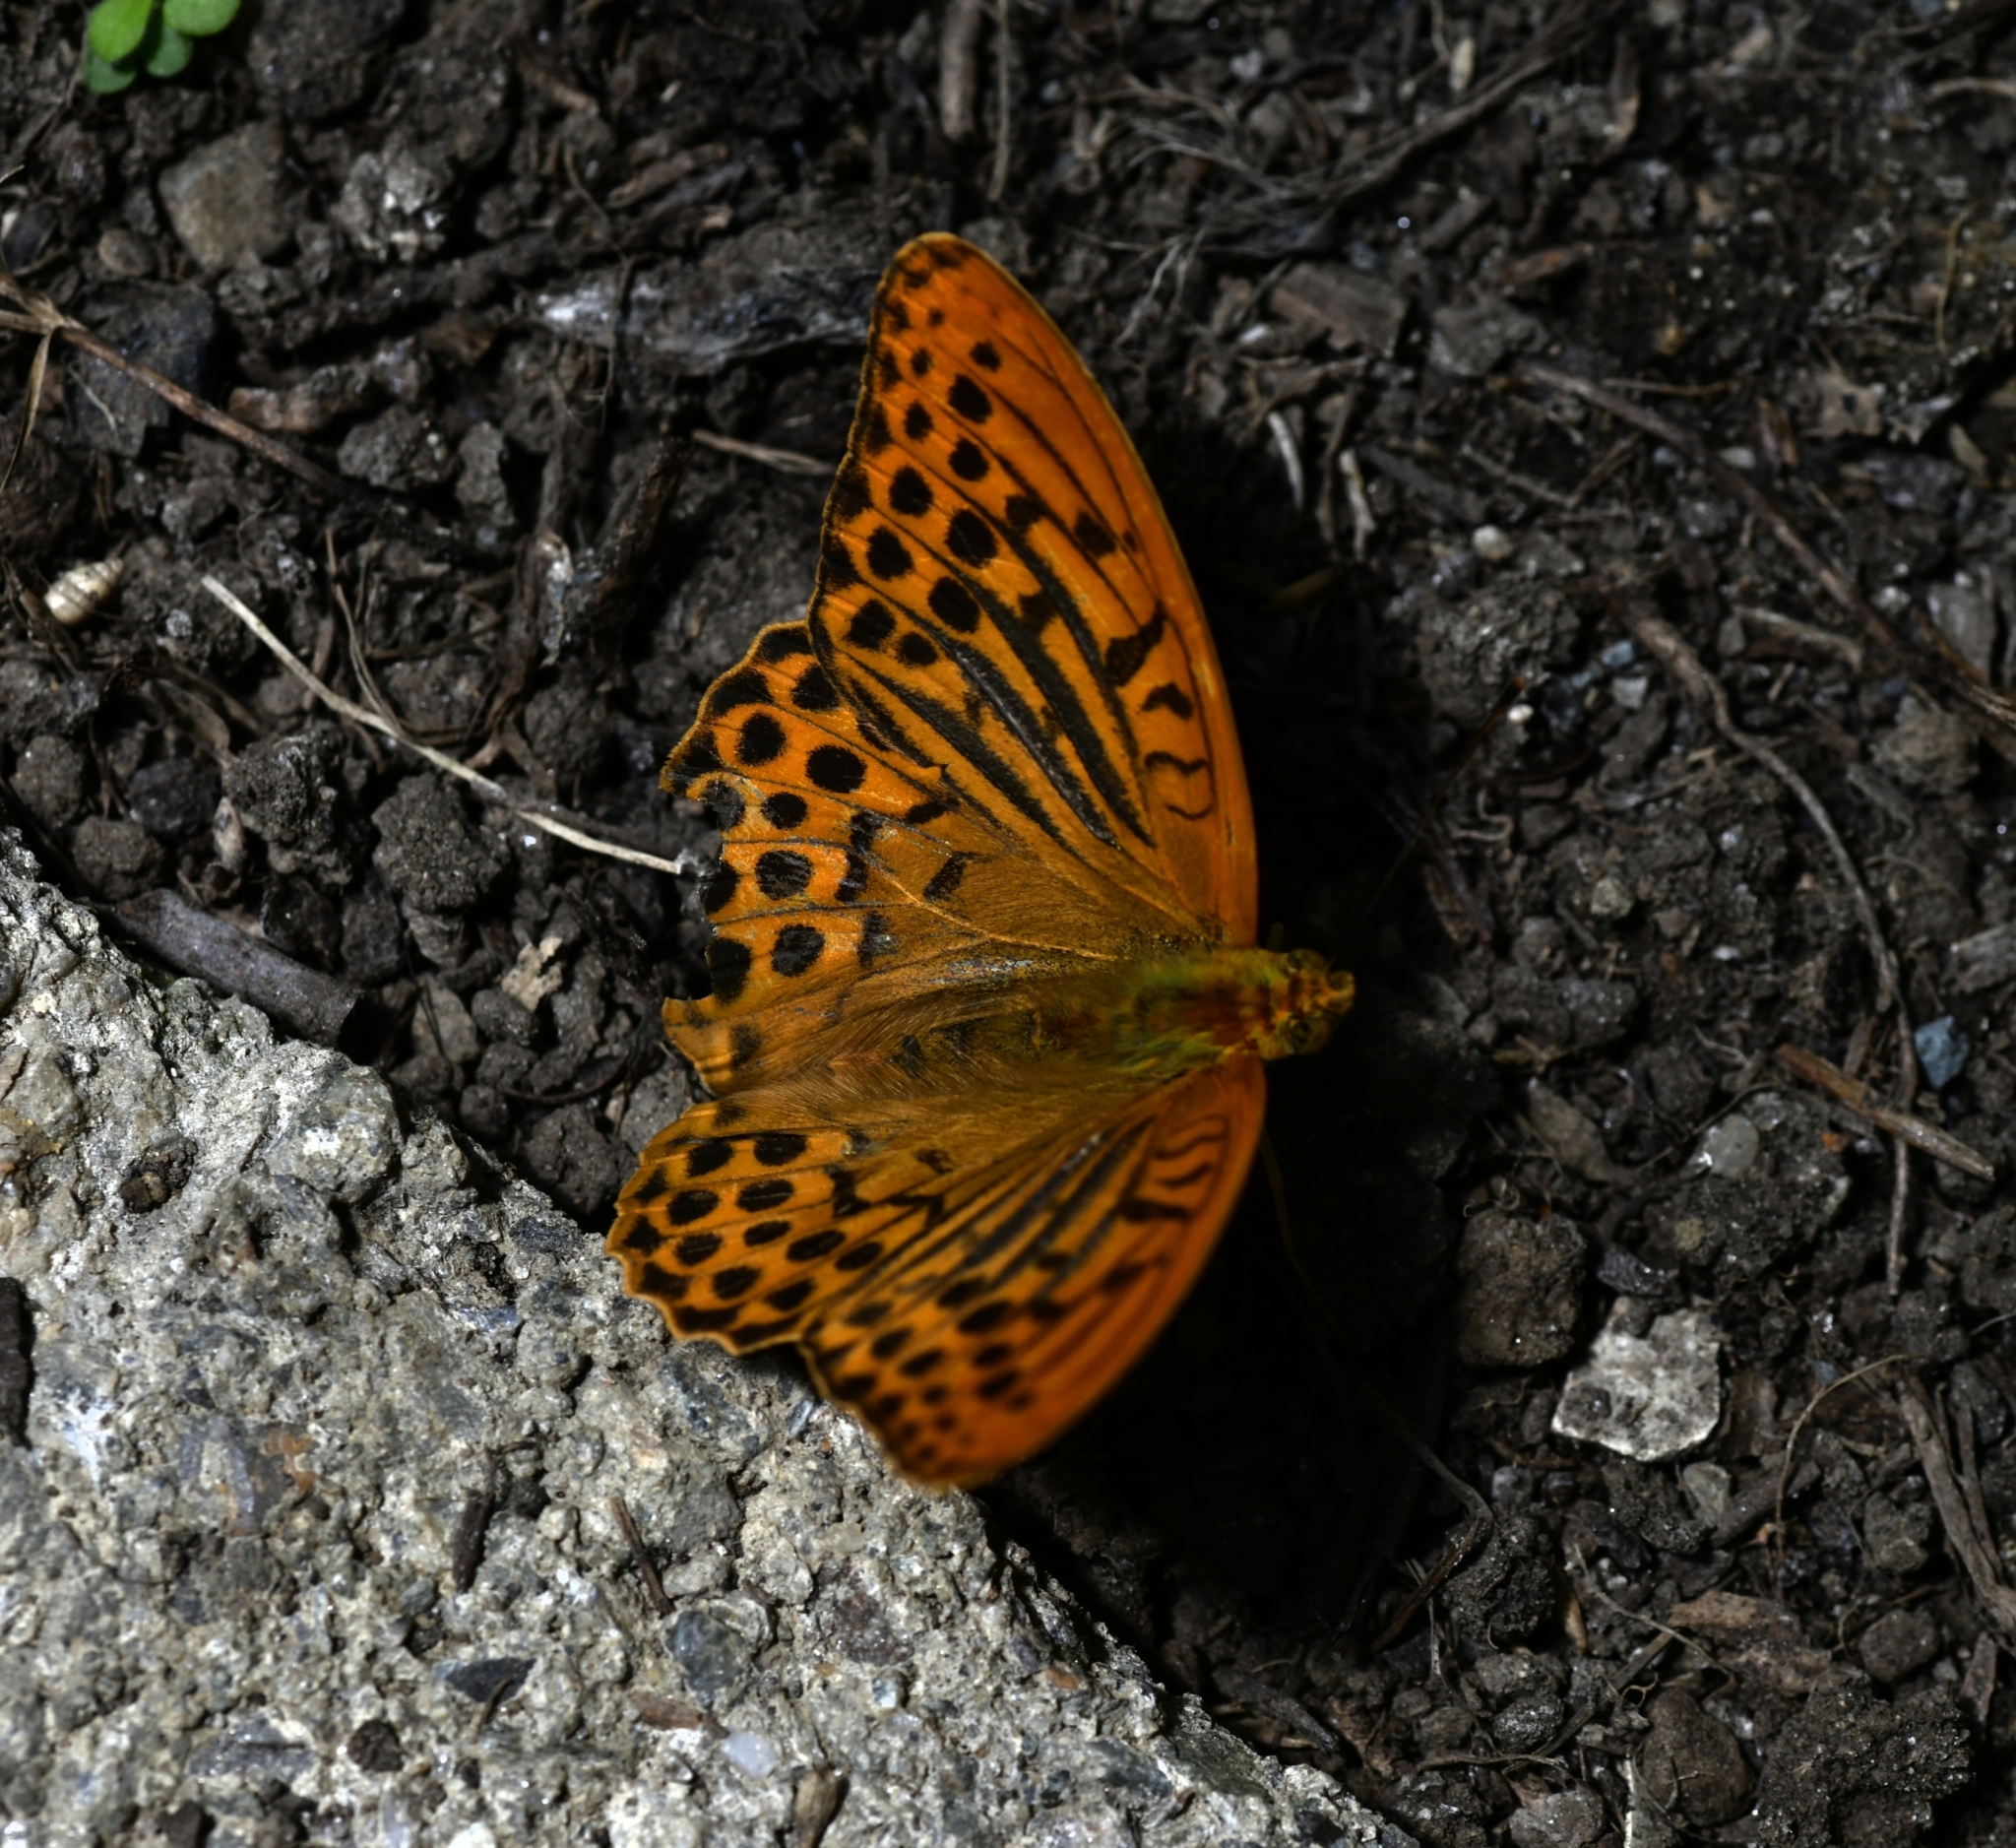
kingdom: Animalia
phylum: Arthropoda
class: Insecta
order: Lepidoptera
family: Nymphalidae
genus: Argynnis
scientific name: Argynnis paphia
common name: Silver-washed fritillary
